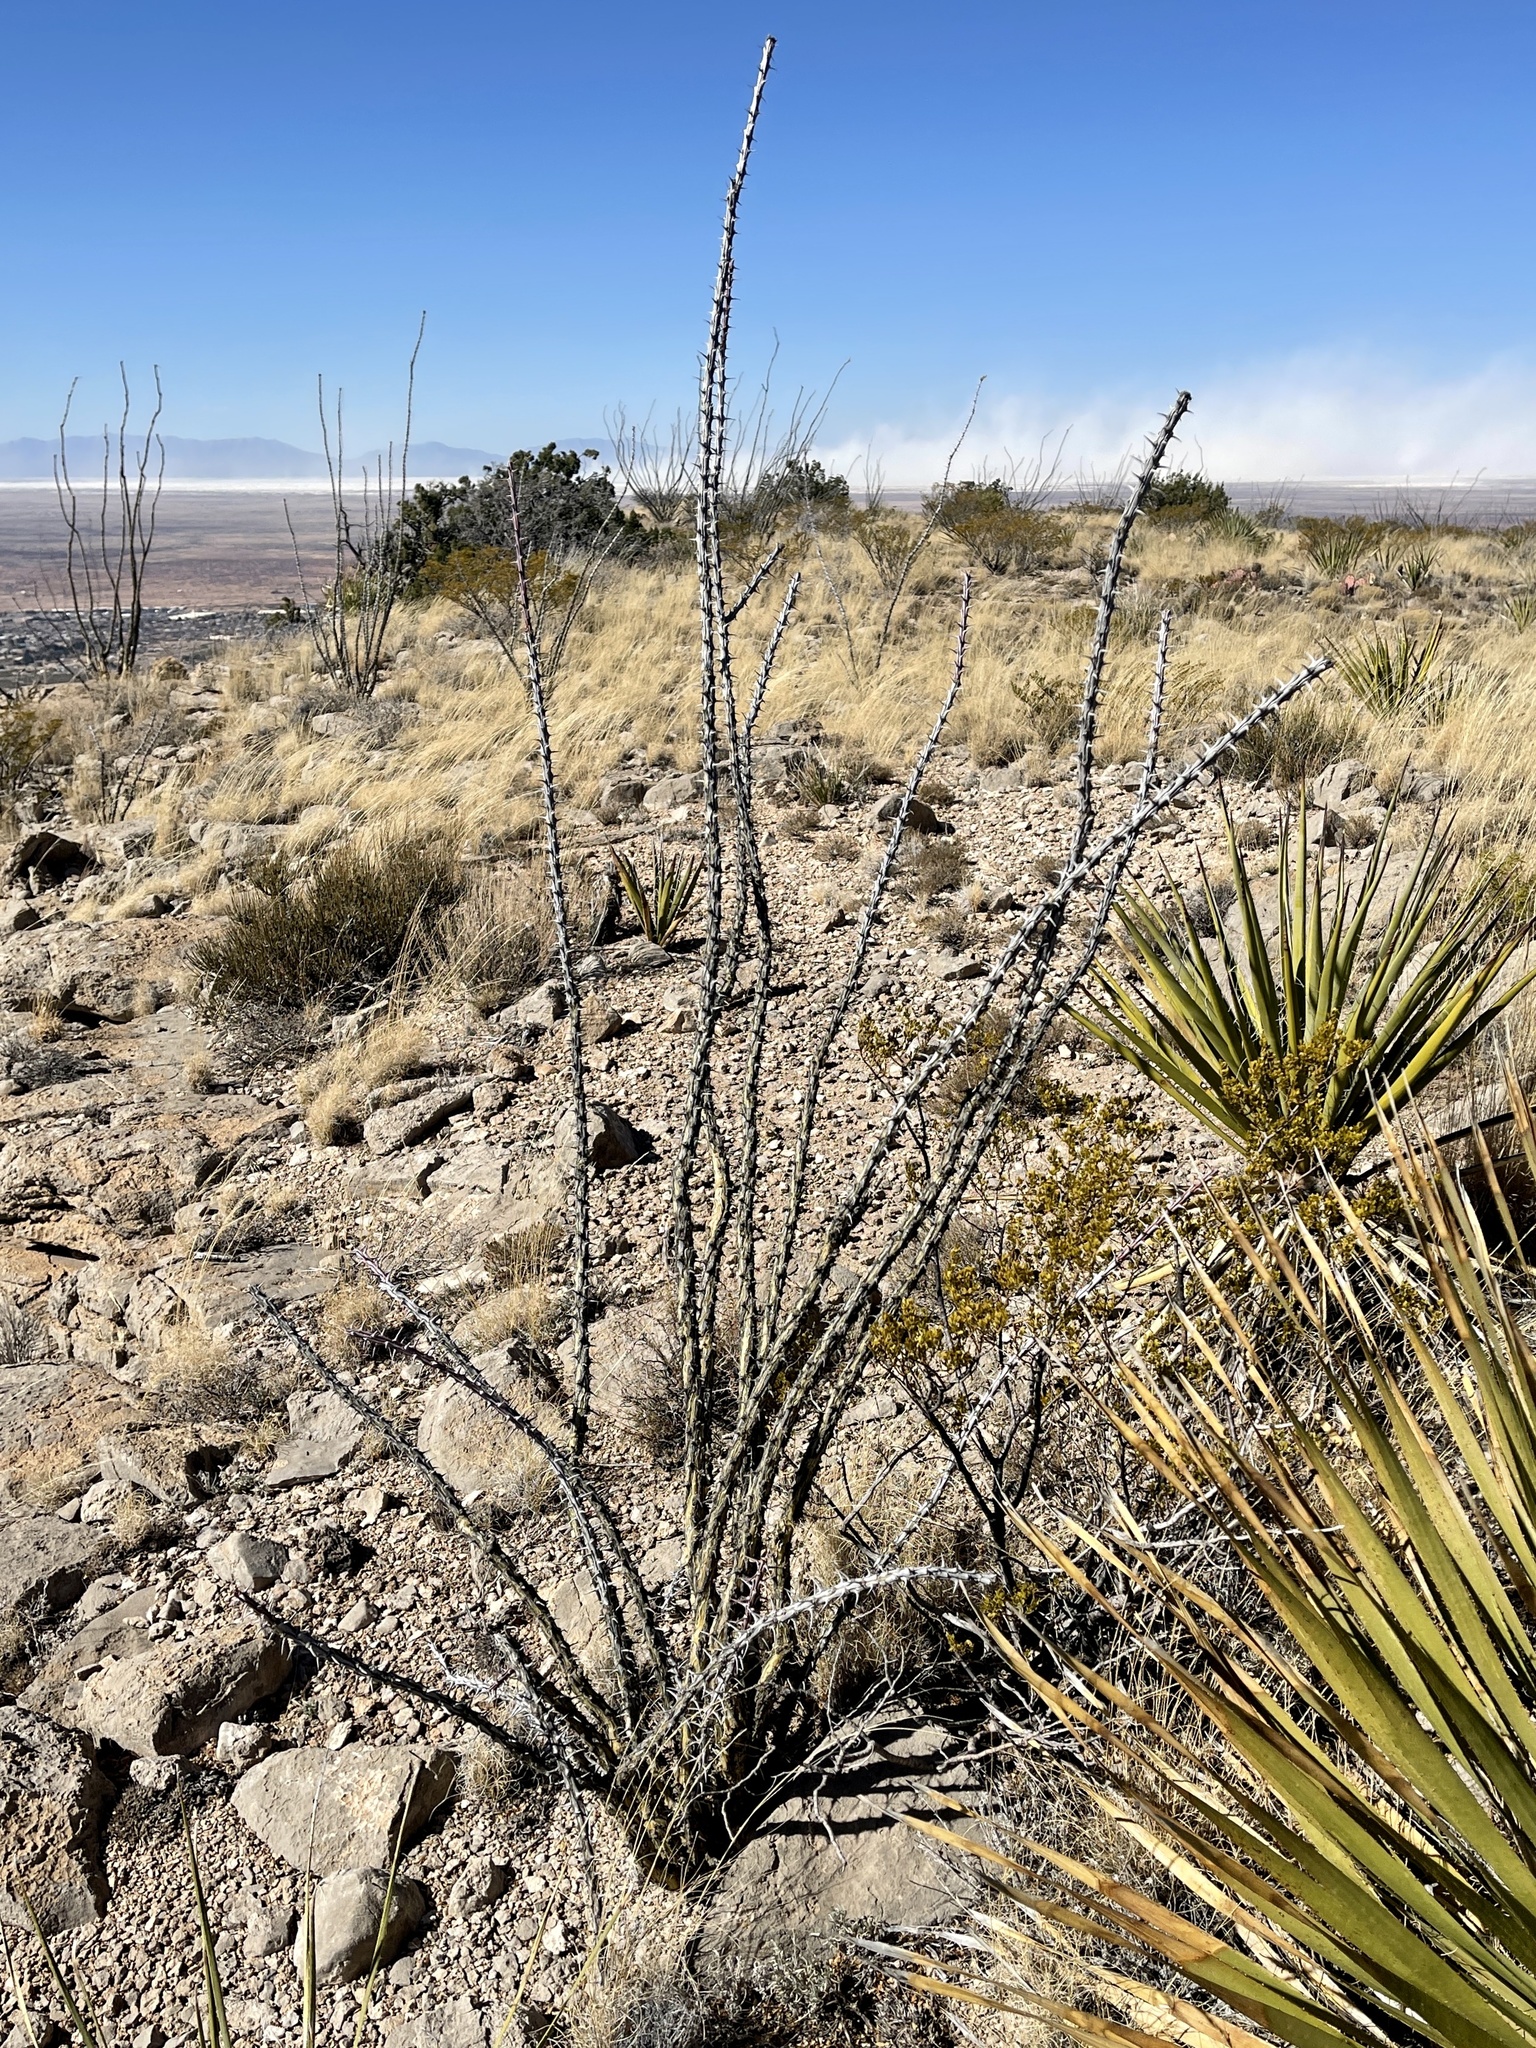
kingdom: Plantae
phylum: Tracheophyta
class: Magnoliopsida
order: Ericales
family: Fouquieriaceae
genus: Fouquieria
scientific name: Fouquieria splendens
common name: Vine-cactus
